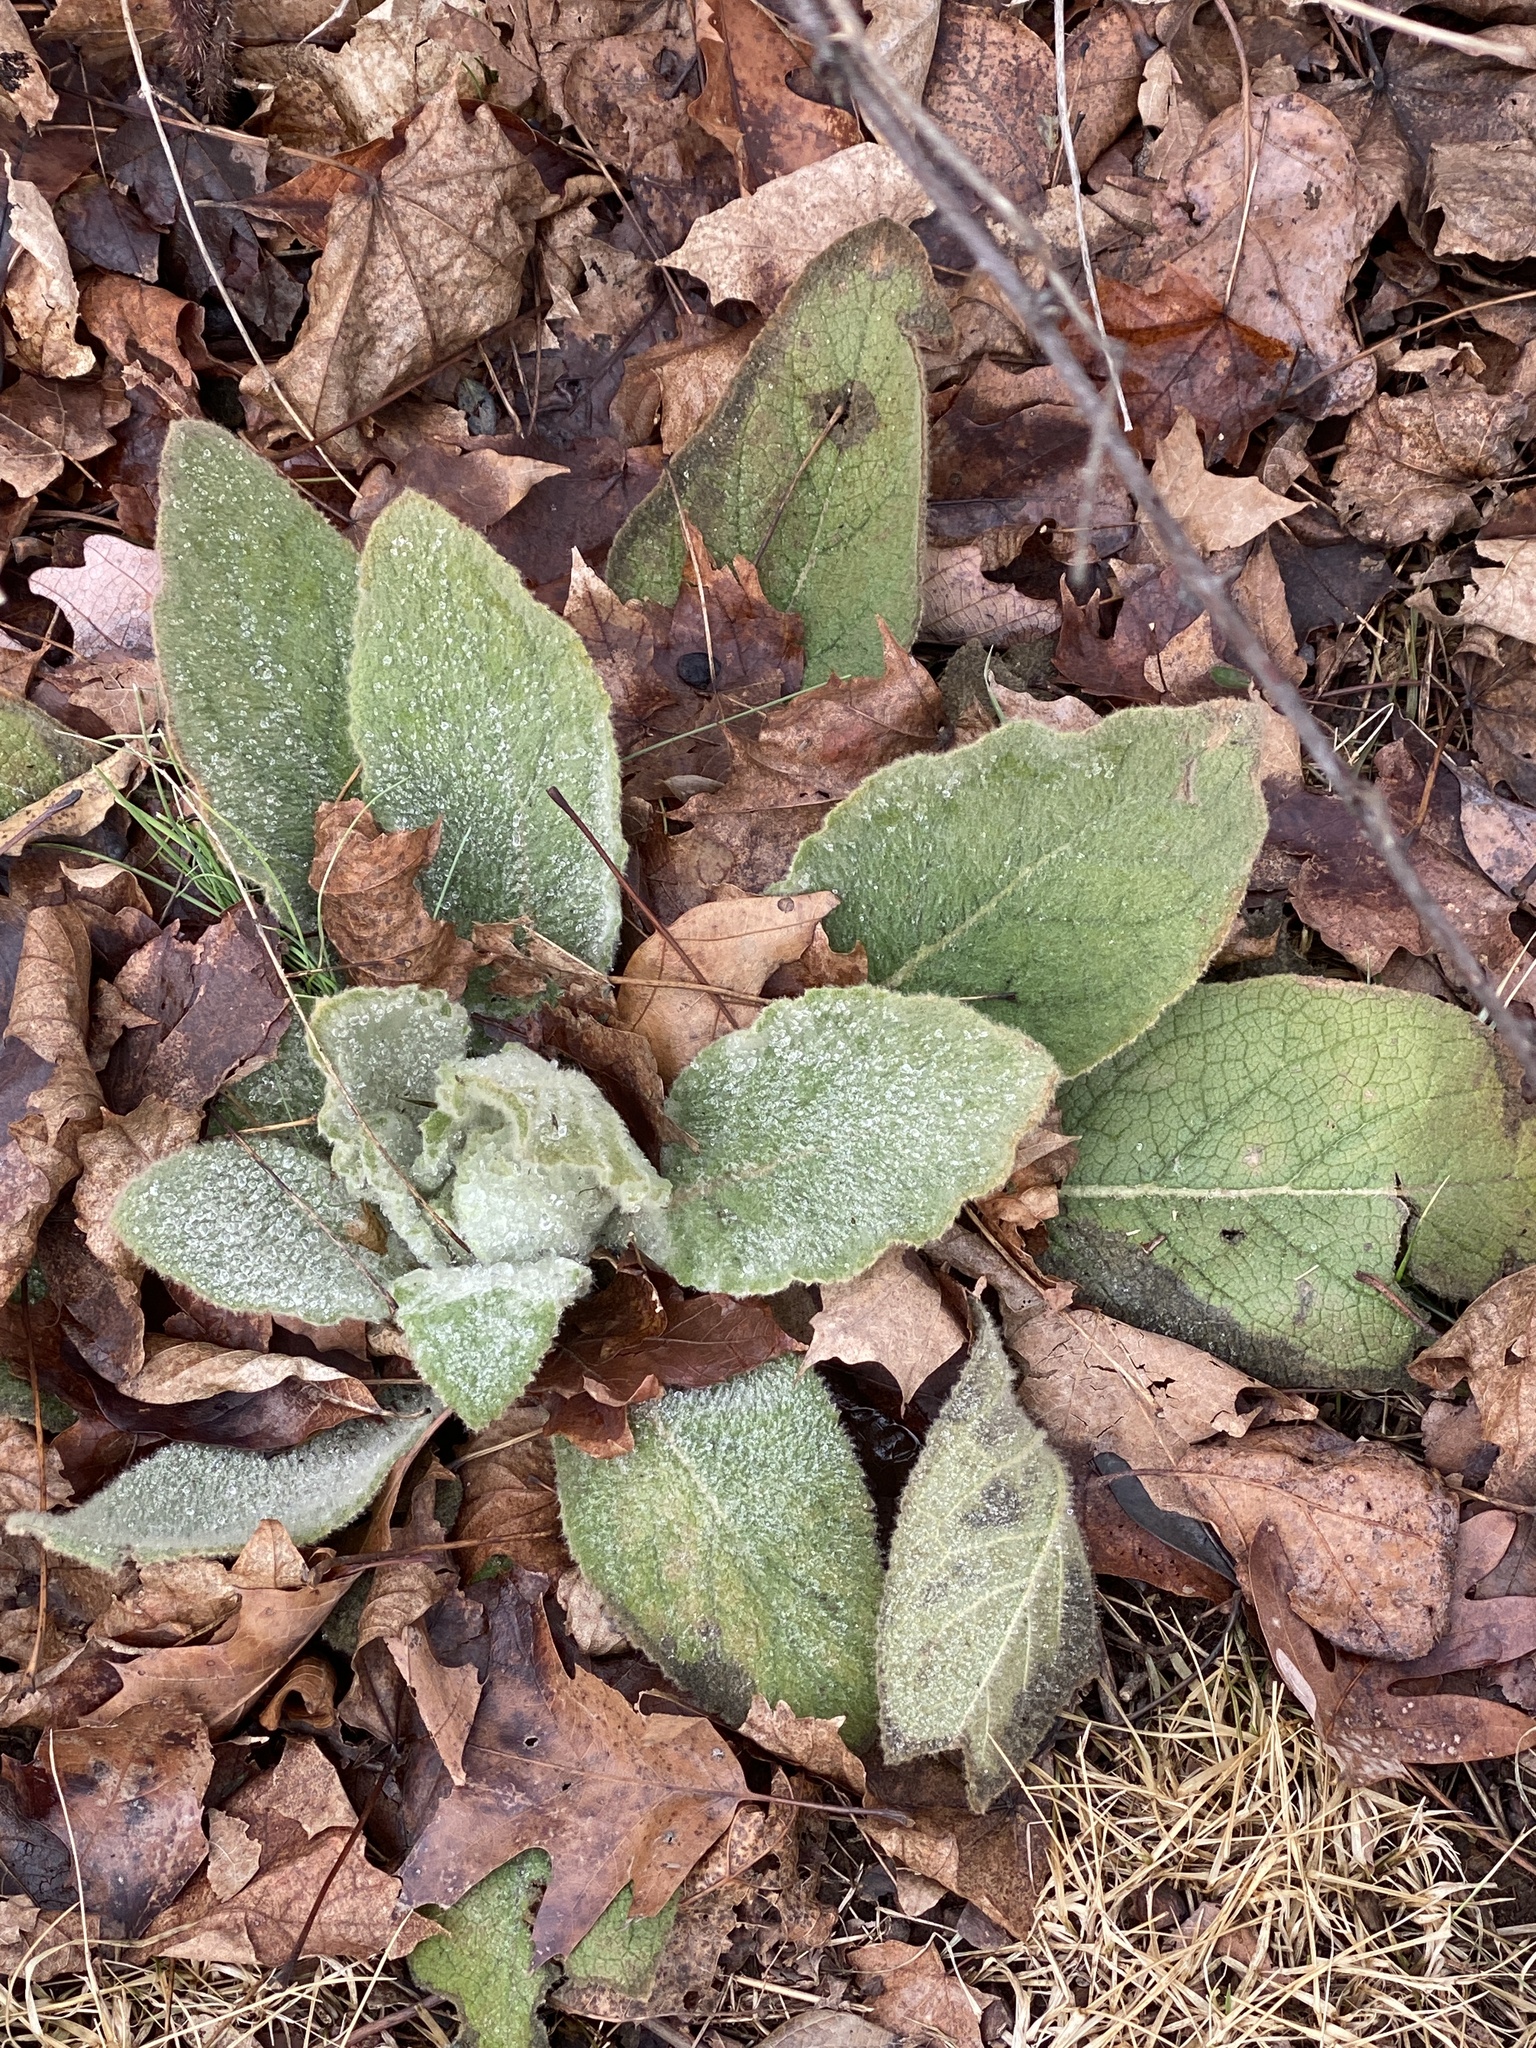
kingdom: Plantae
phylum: Tracheophyta
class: Magnoliopsida
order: Lamiales
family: Scrophulariaceae
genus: Verbascum
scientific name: Verbascum thapsus
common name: Common mullein
